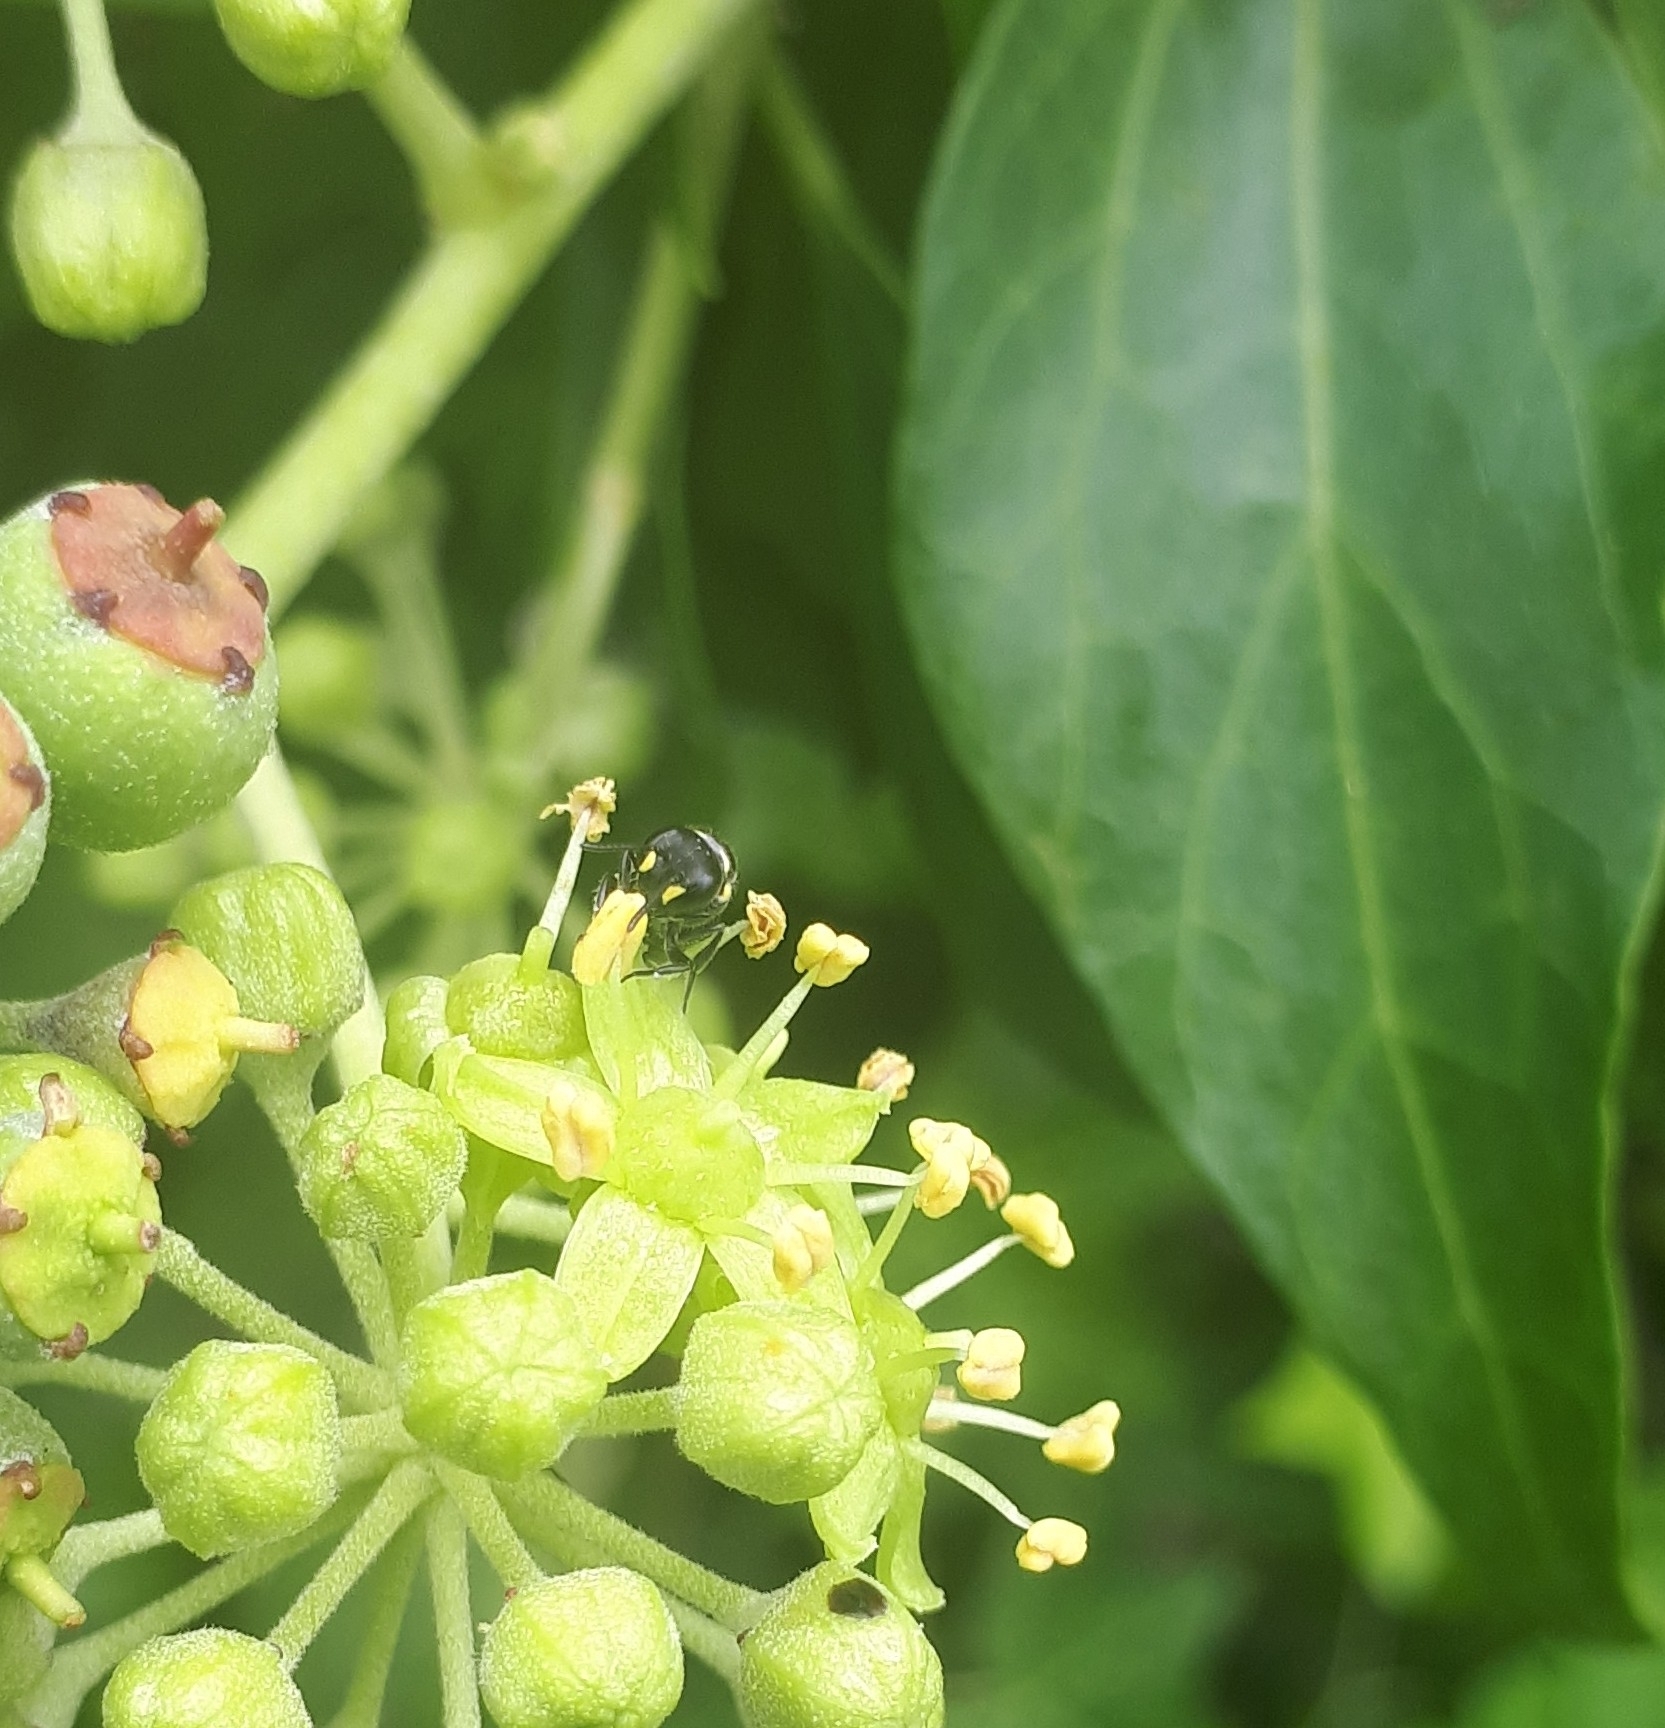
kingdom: Animalia
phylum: Arthropoda
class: Insecta
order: Hymenoptera
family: Colletidae
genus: Hylaeus
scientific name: Hylaeus relegatus
